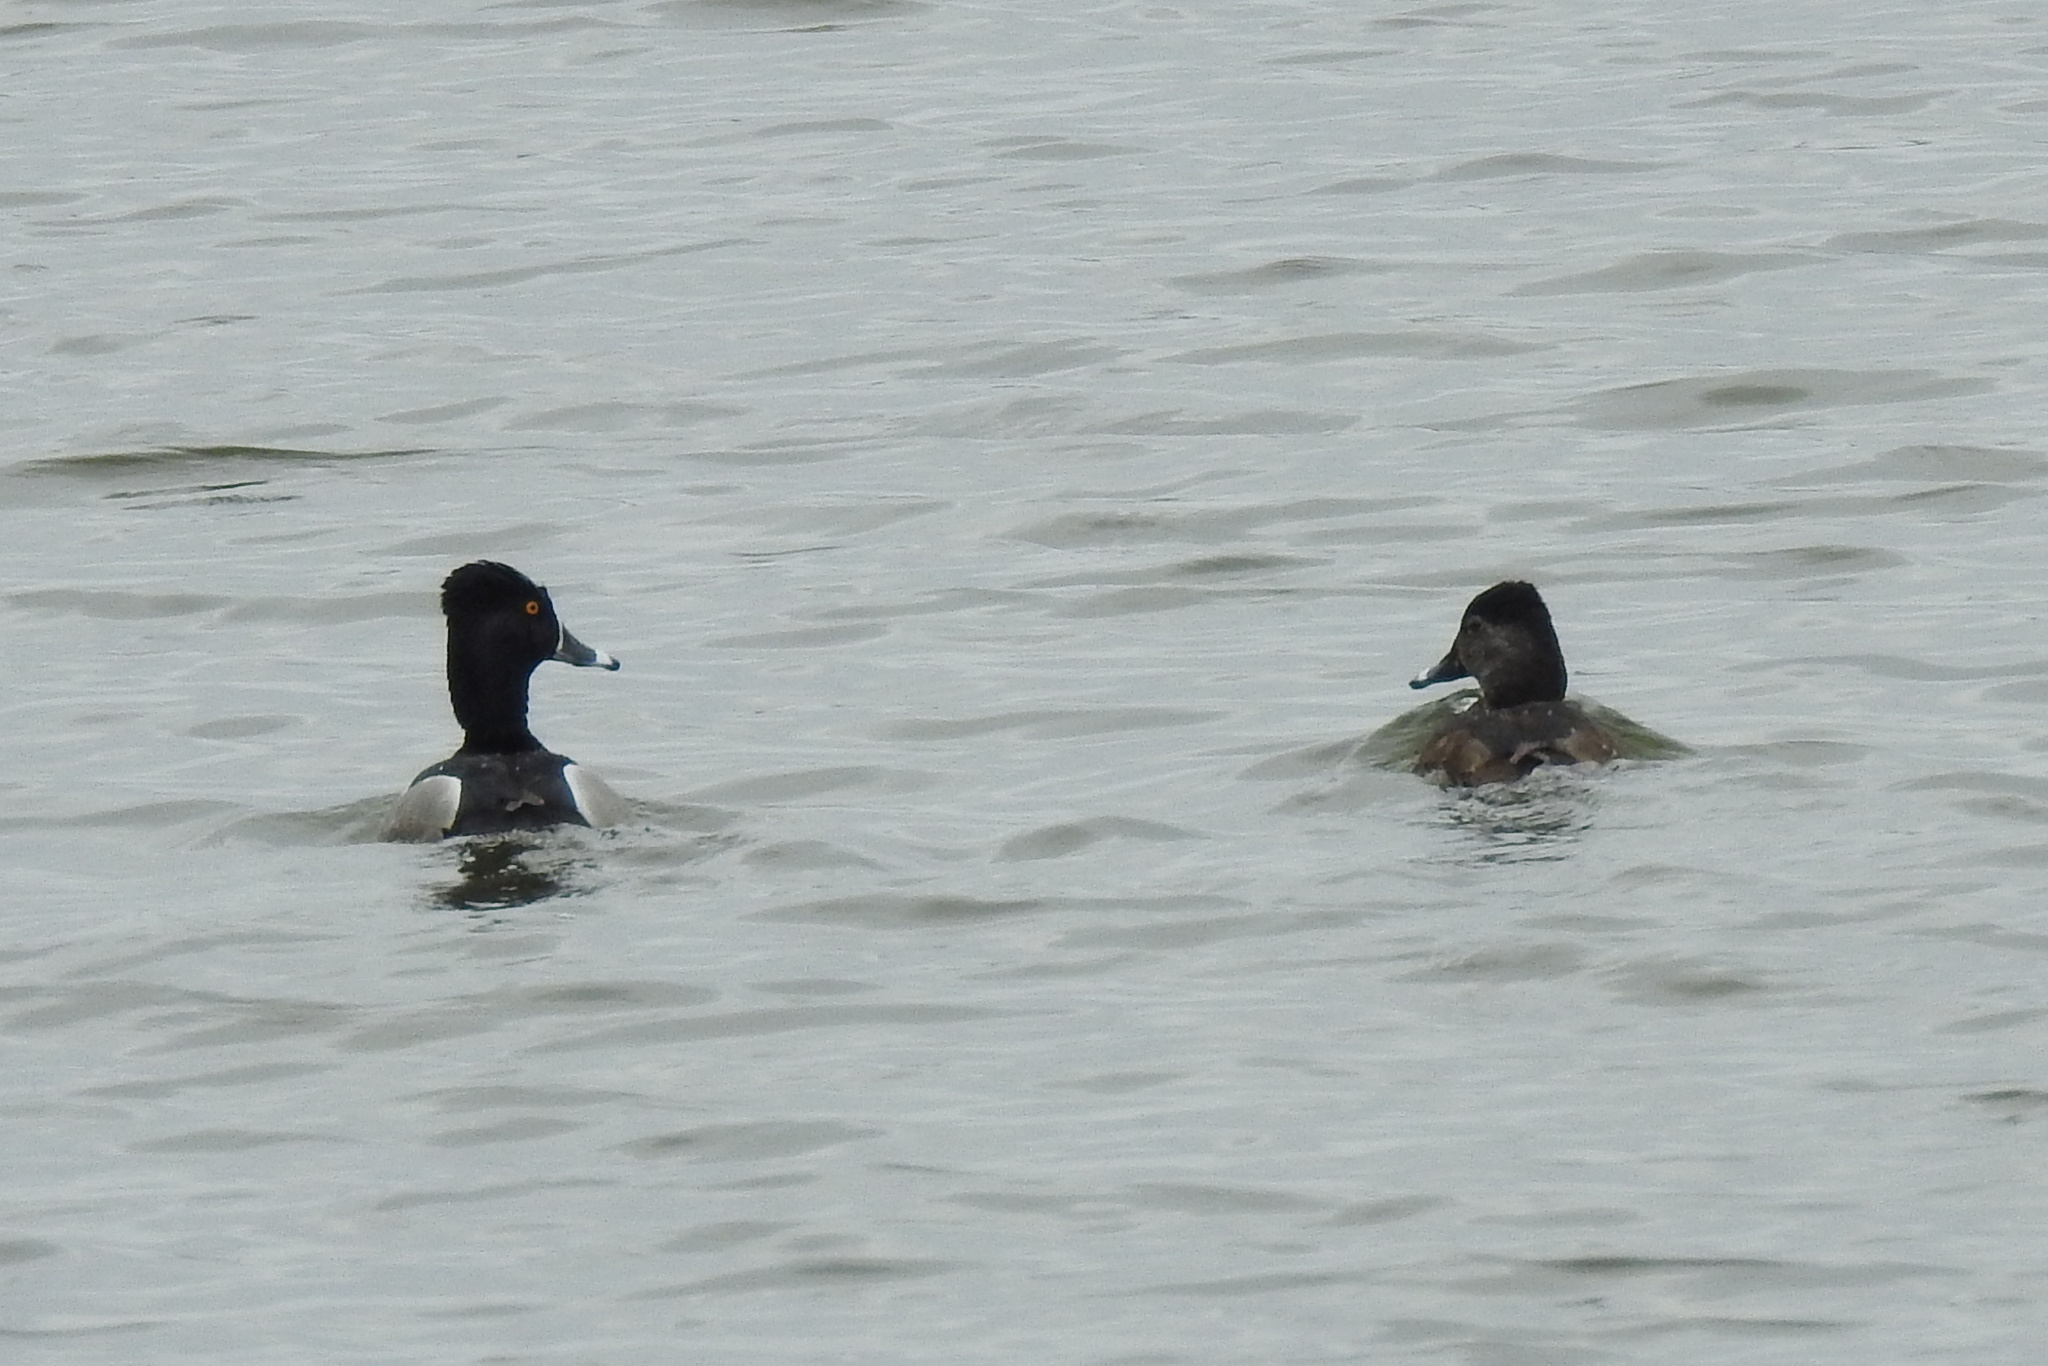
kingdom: Animalia
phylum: Chordata
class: Aves
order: Anseriformes
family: Anatidae
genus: Aythya
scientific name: Aythya collaris
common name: Ring-necked duck
